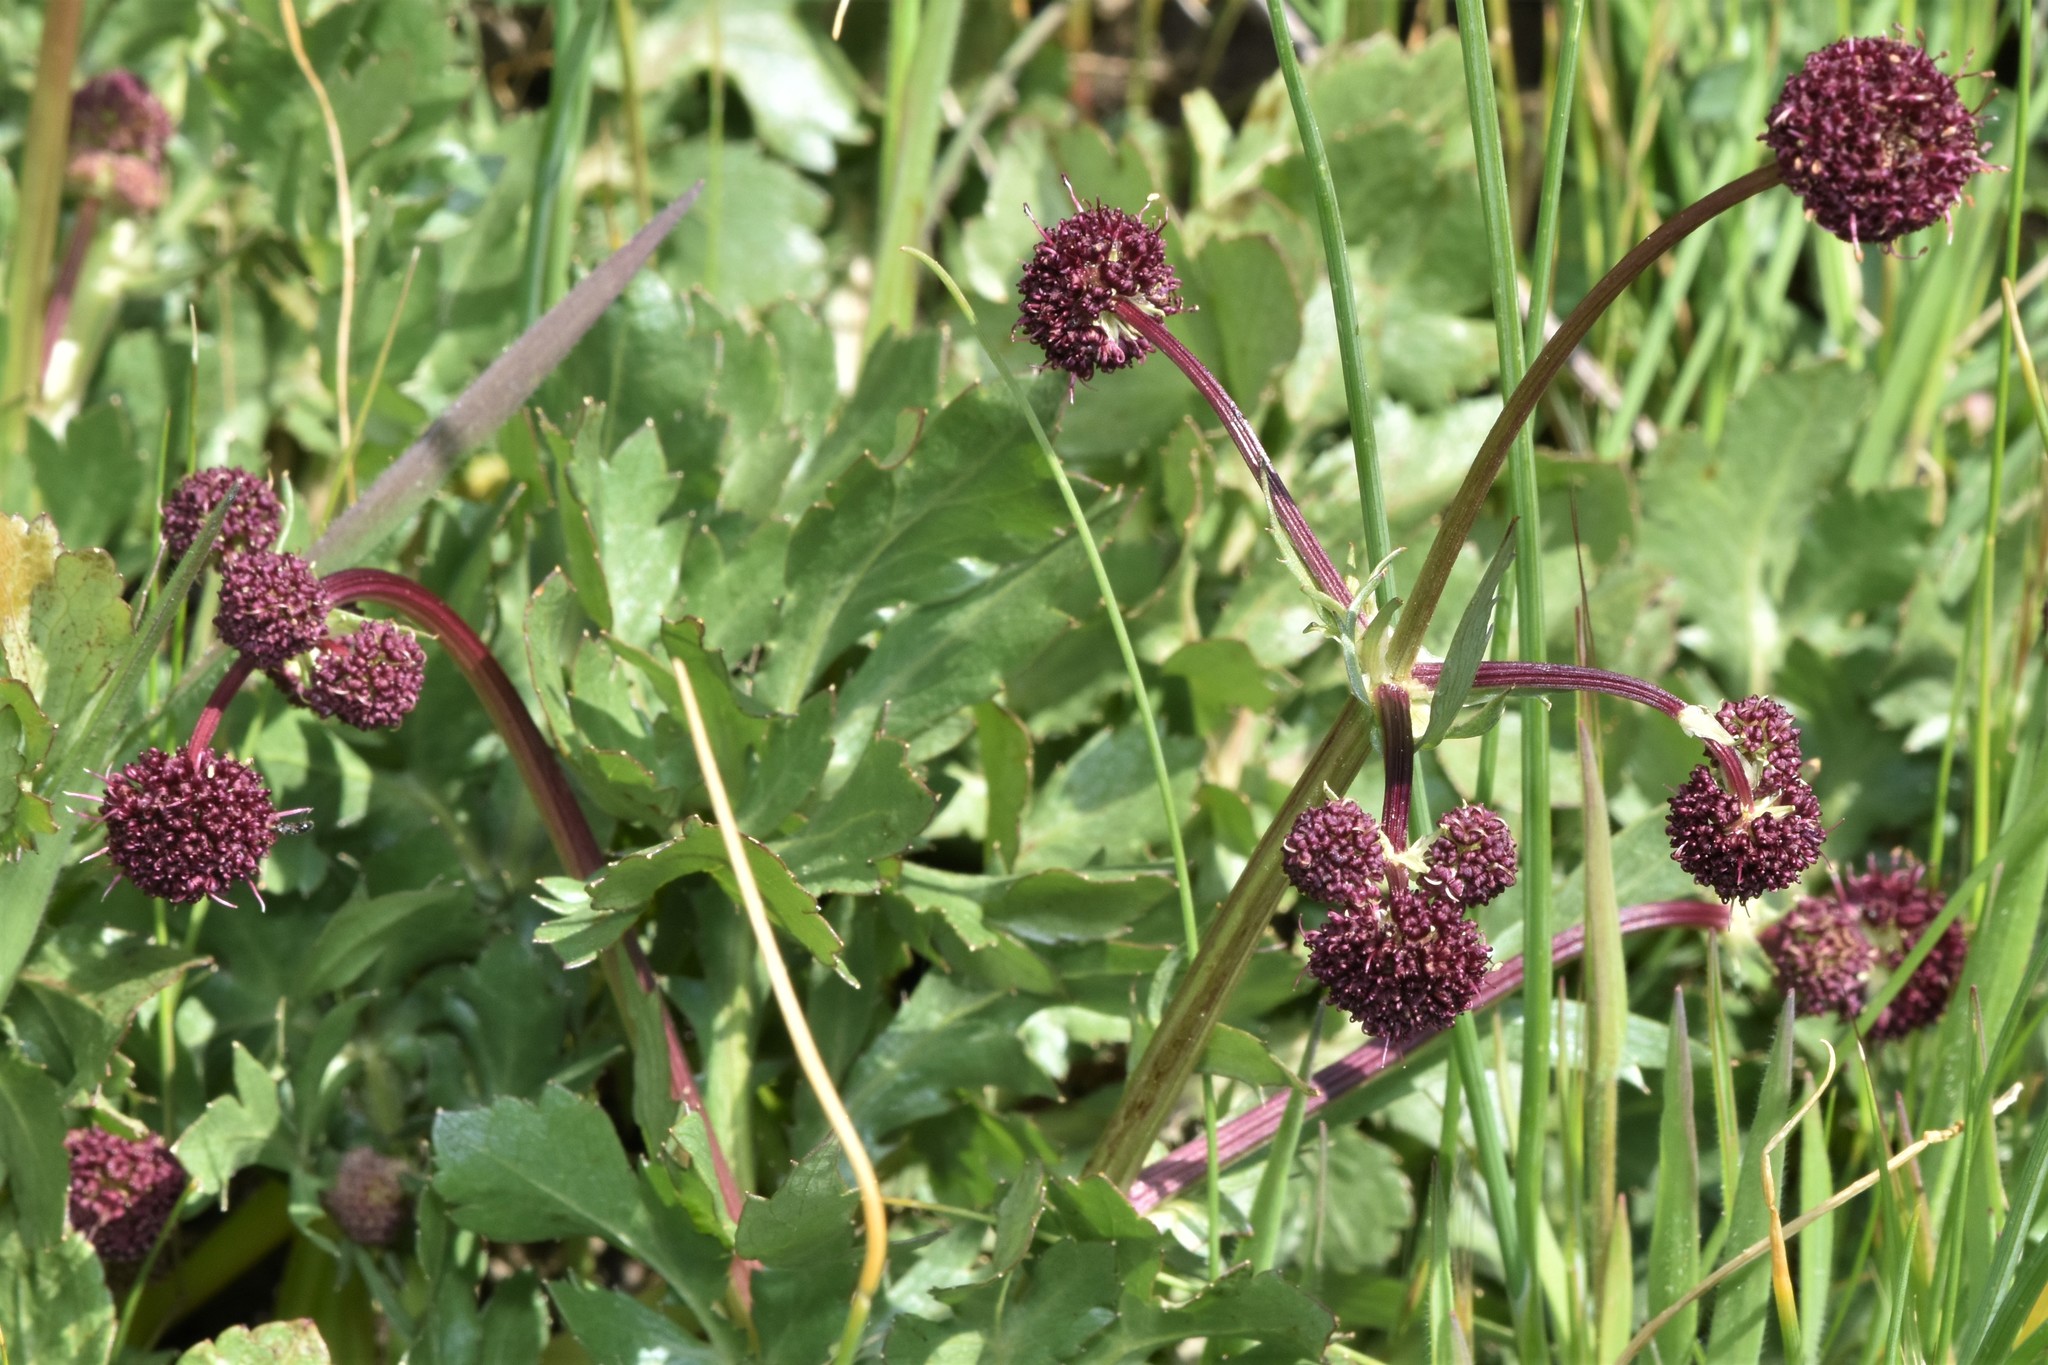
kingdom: Plantae
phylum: Tracheophyta
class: Magnoliopsida
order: Apiales
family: Apiaceae
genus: Sanicula
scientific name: Sanicula bipinnatifida
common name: Shoe-buttons
